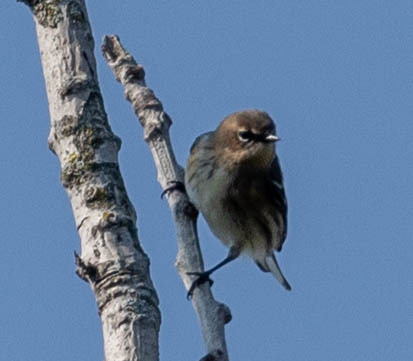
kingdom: Animalia
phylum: Chordata
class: Aves
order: Passeriformes
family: Parulidae
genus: Setophaga
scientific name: Setophaga coronata
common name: Myrtle warbler
